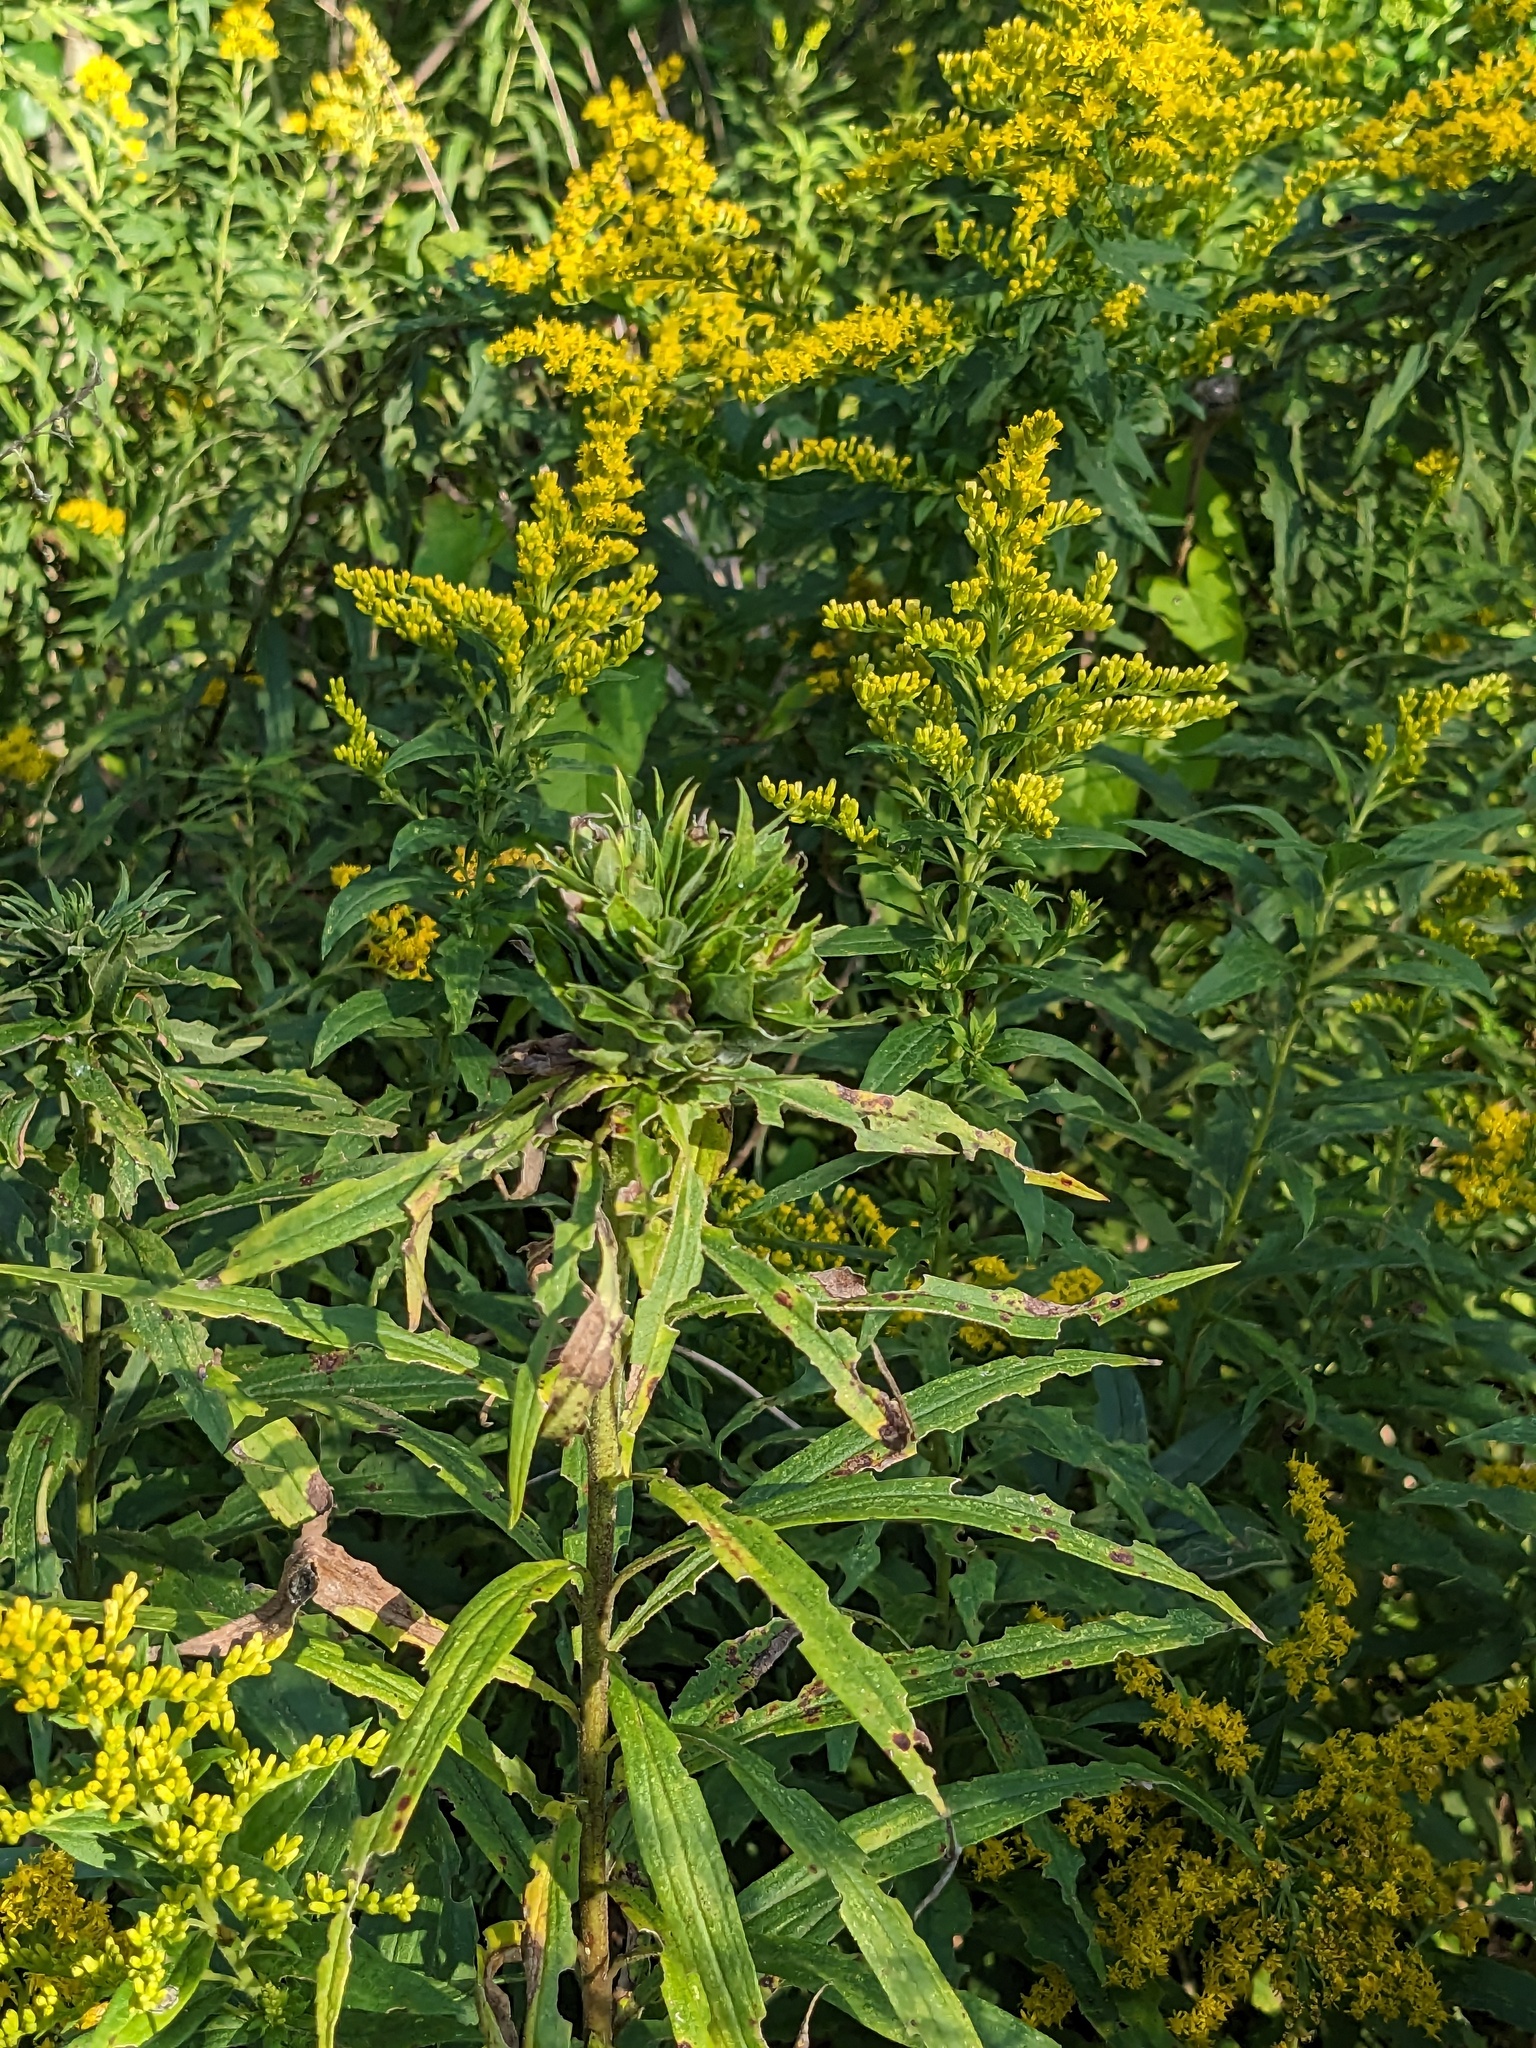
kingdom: Animalia
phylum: Arthropoda
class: Insecta
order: Diptera
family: Cecidomyiidae
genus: Rhopalomyia
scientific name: Rhopalomyia solidaginis
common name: Goldenrod bunch gall midge
